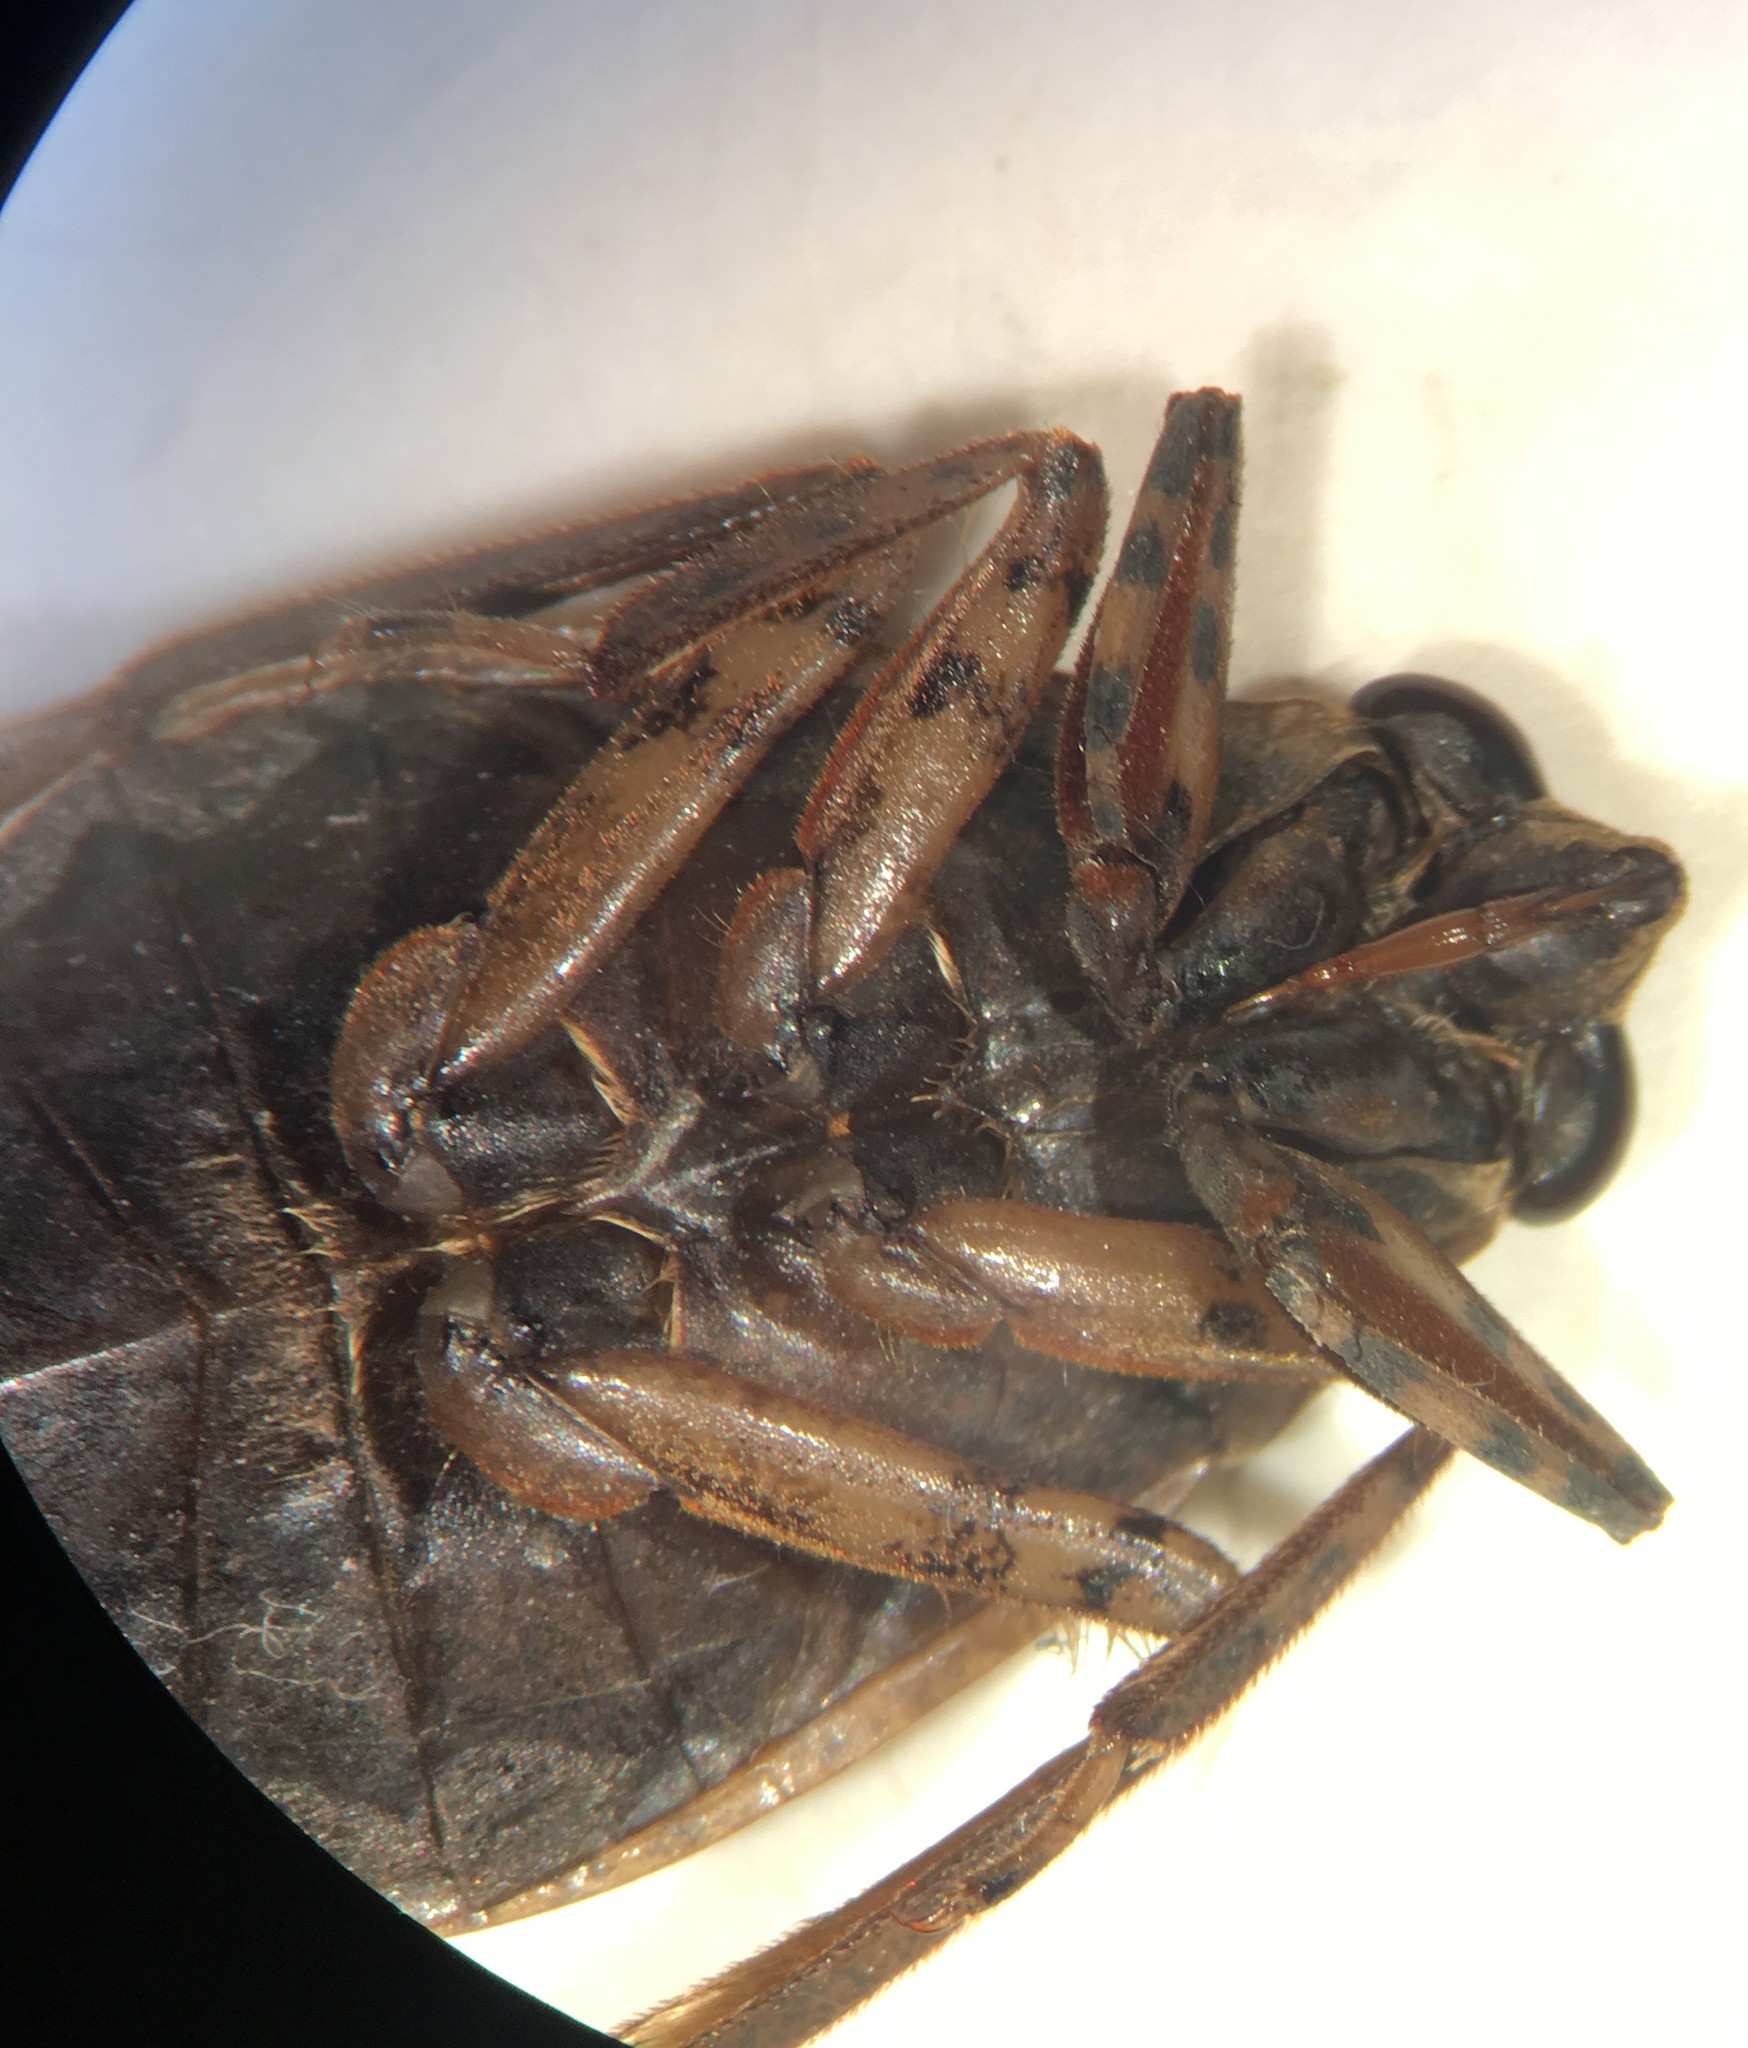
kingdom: Animalia
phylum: Arthropoda
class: Insecta
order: Hemiptera
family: Belostomatidae
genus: Belostoma
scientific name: Belostoma testaceum
